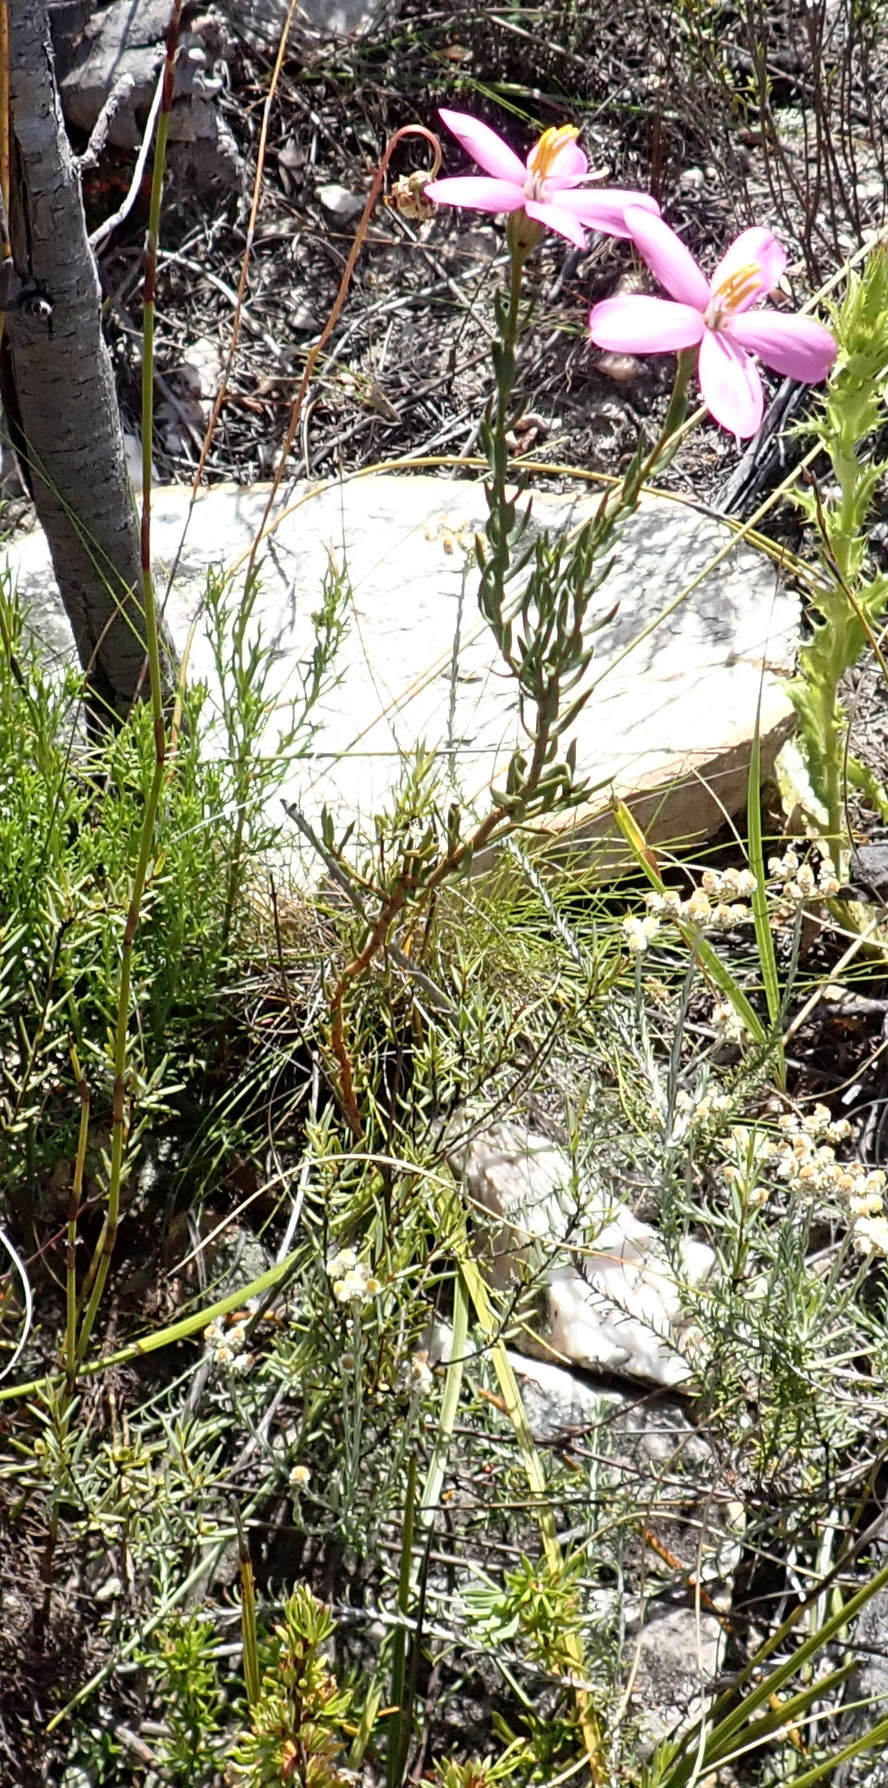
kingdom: Plantae
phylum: Tracheophyta
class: Magnoliopsida
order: Gentianales
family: Gentianaceae
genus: Chironia
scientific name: Chironia linoides
